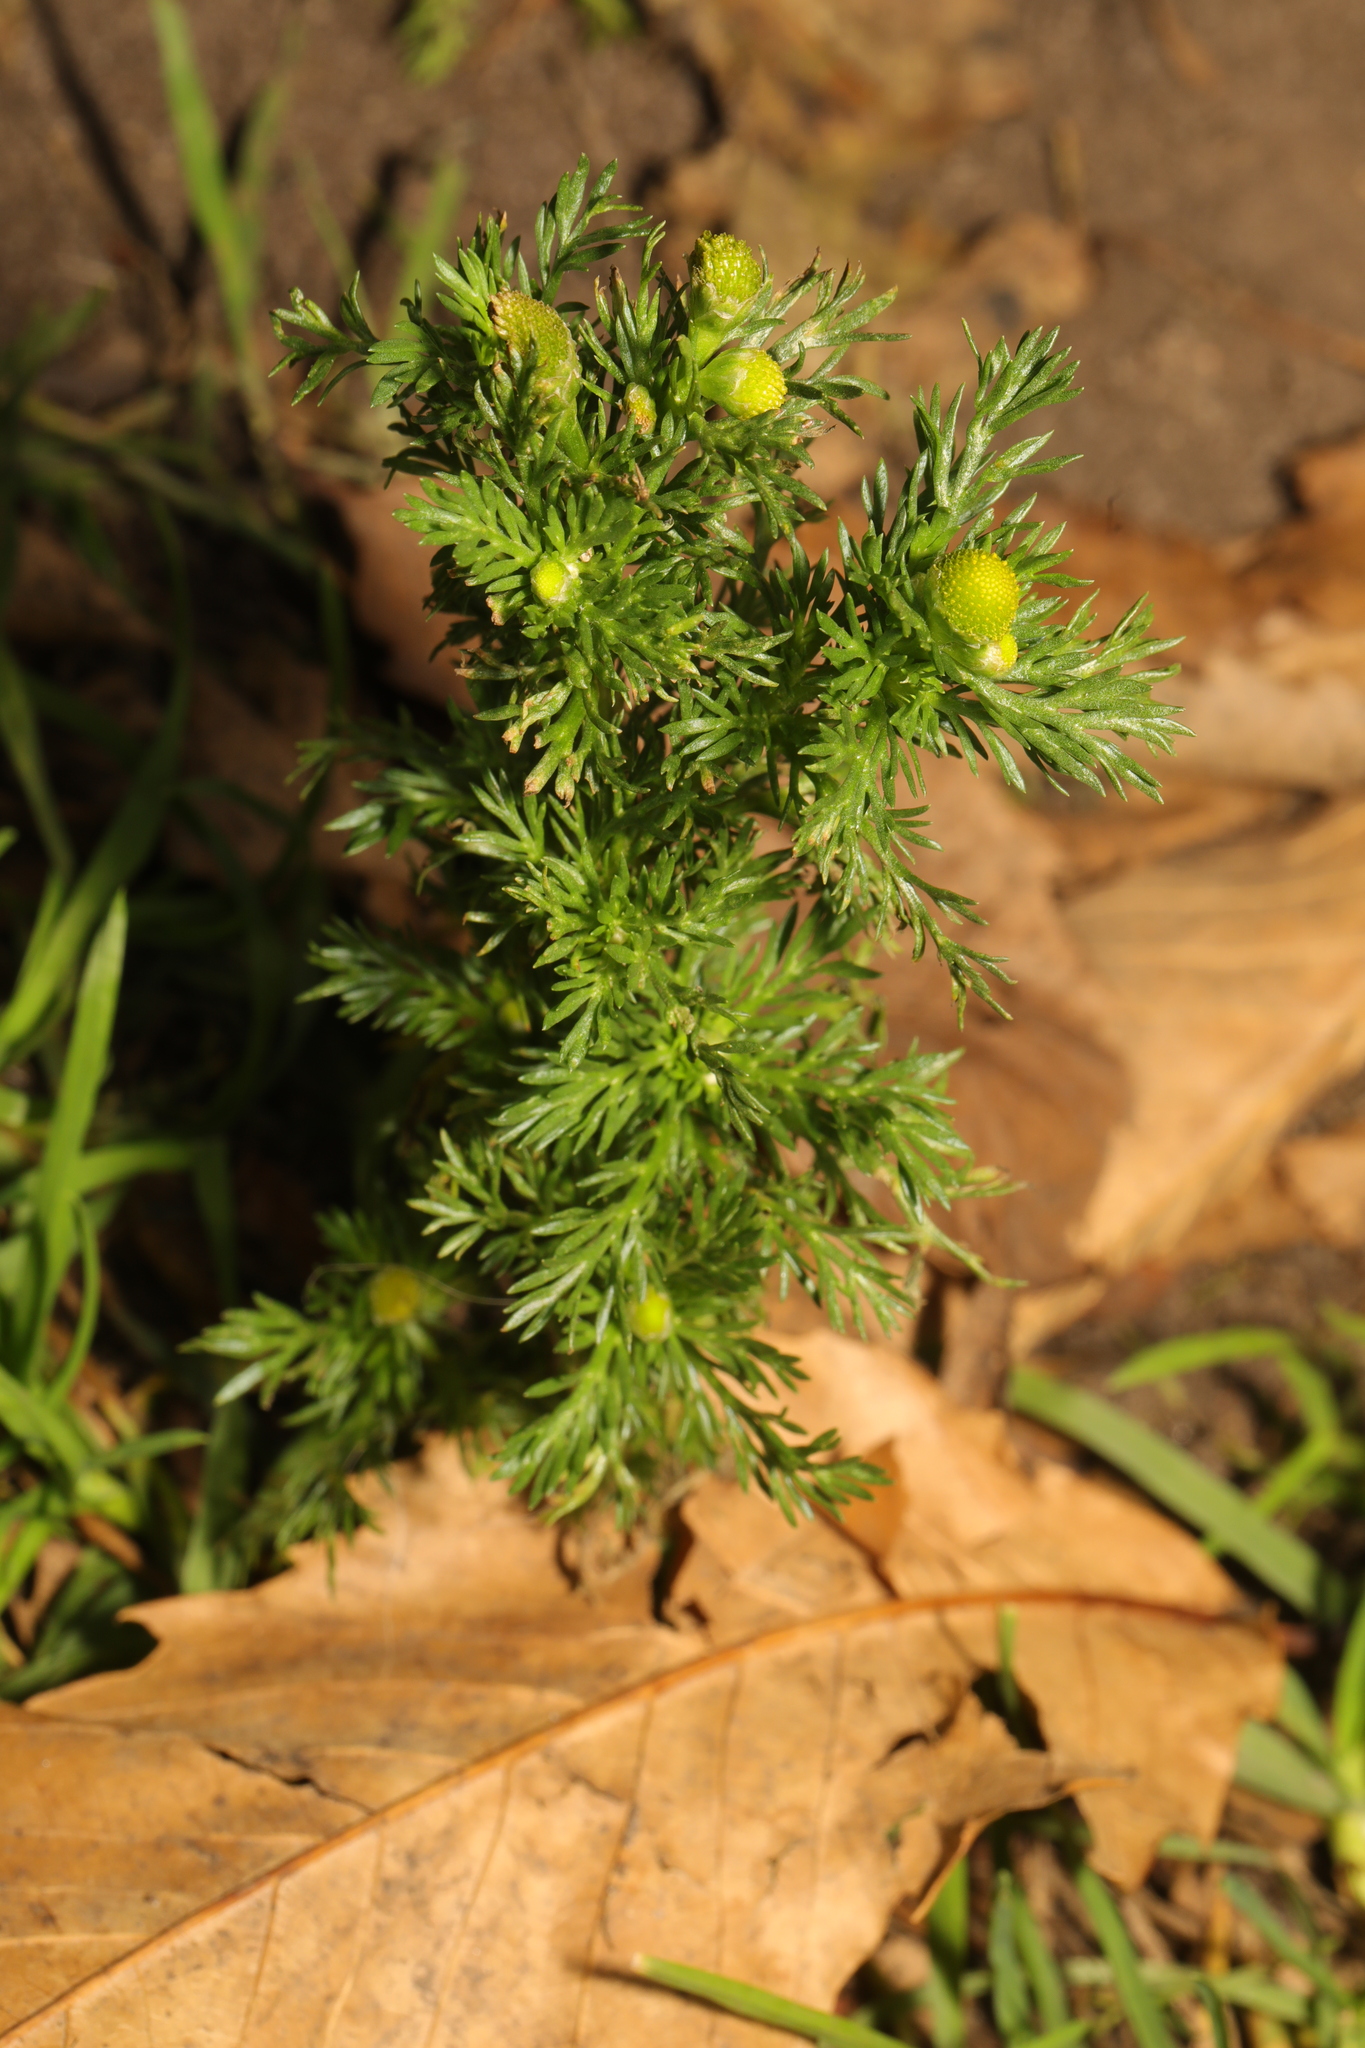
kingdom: Plantae
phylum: Tracheophyta
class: Magnoliopsida
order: Asterales
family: Asteraceae
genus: Matricaria
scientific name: Matricaria discoidea
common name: Disc mayweed
